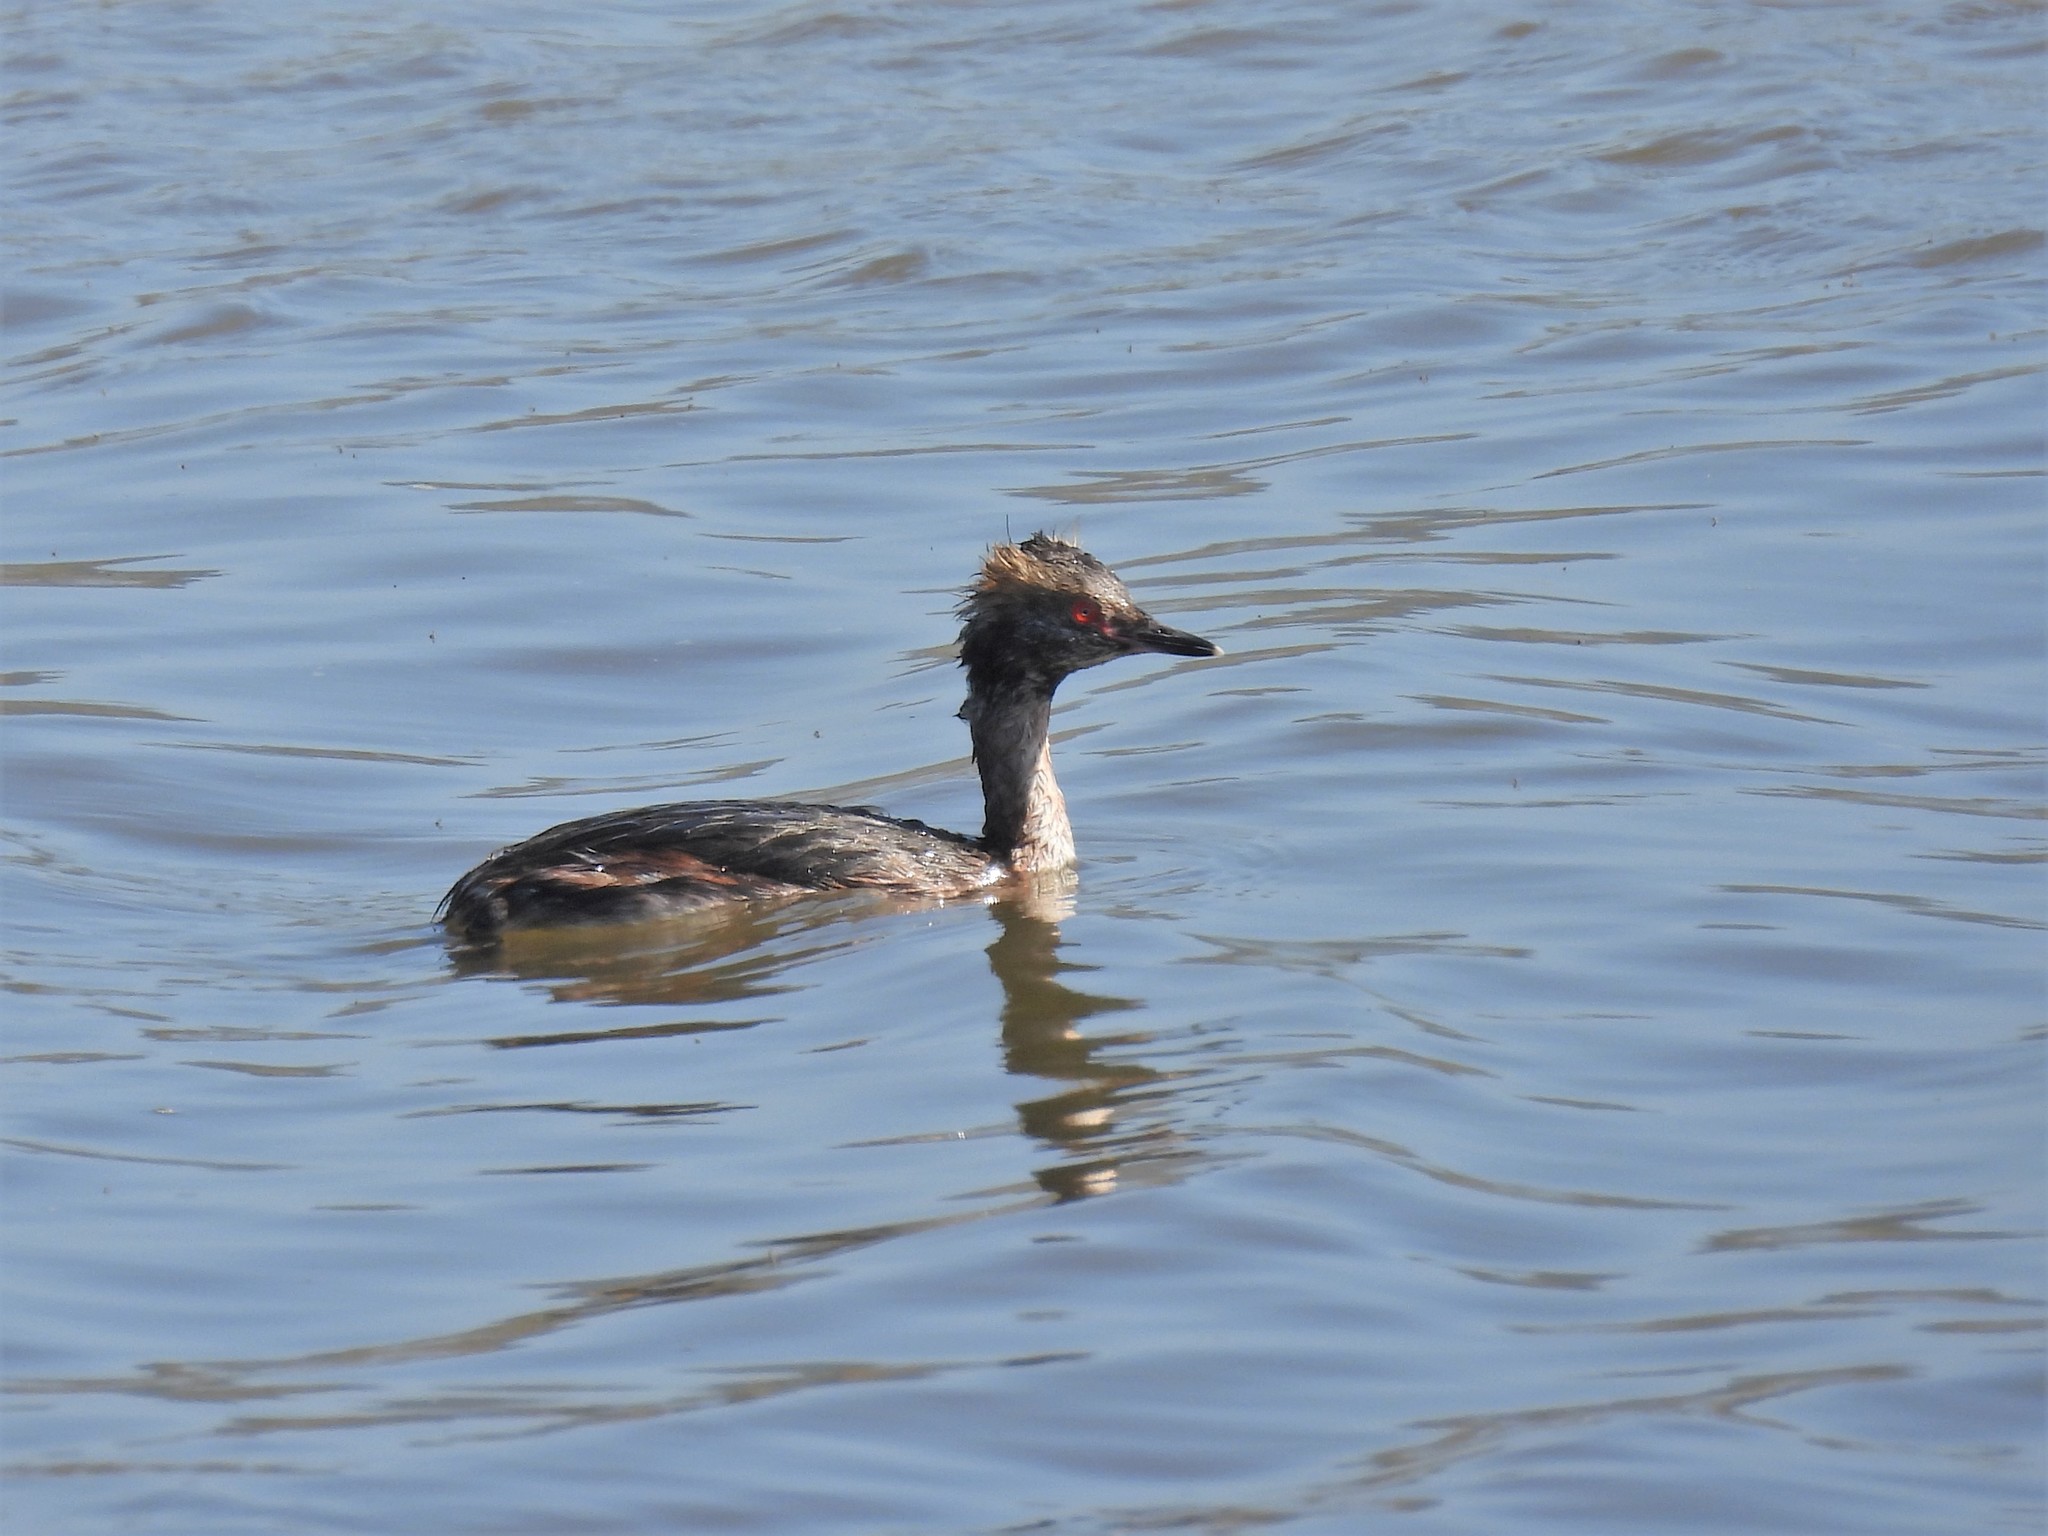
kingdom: Animalia
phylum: Chordata
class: Aves
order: Podicipediformes
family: Podicipedidae
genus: Podiceps
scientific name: Podiceps auritus
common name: Horned grebe
